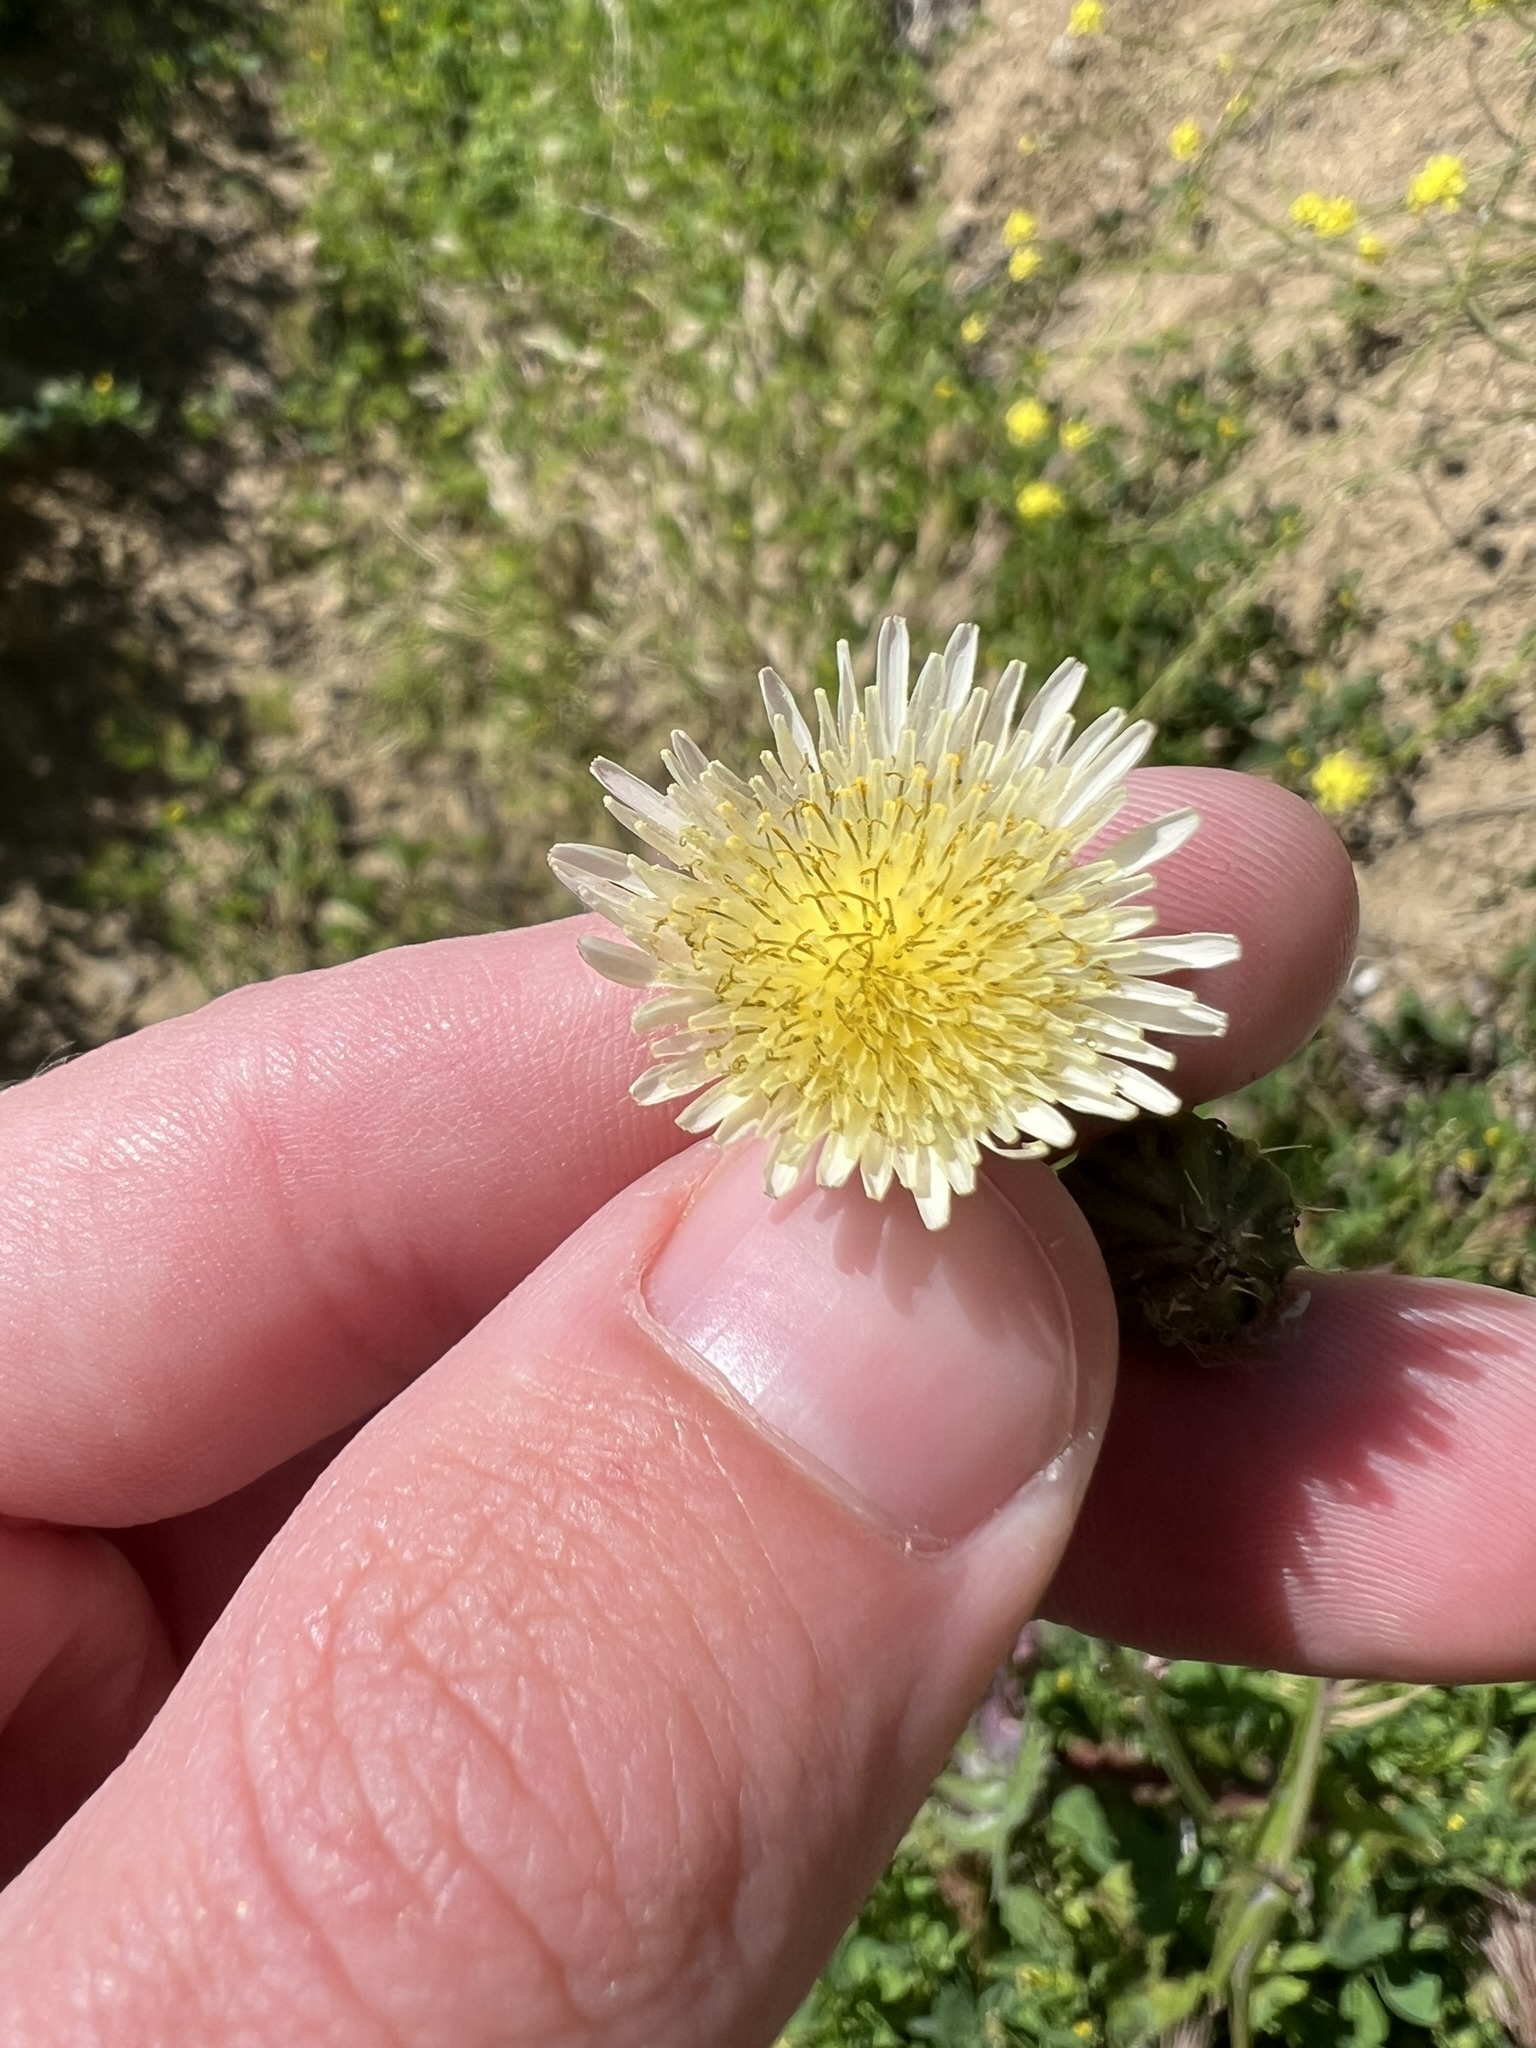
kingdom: Plantae
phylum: Tracheophyta
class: Magnoliopsida
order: Asterales
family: Asteraceae
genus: Sonchus
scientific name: Sonchus oleraceus
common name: Common sowthistle
